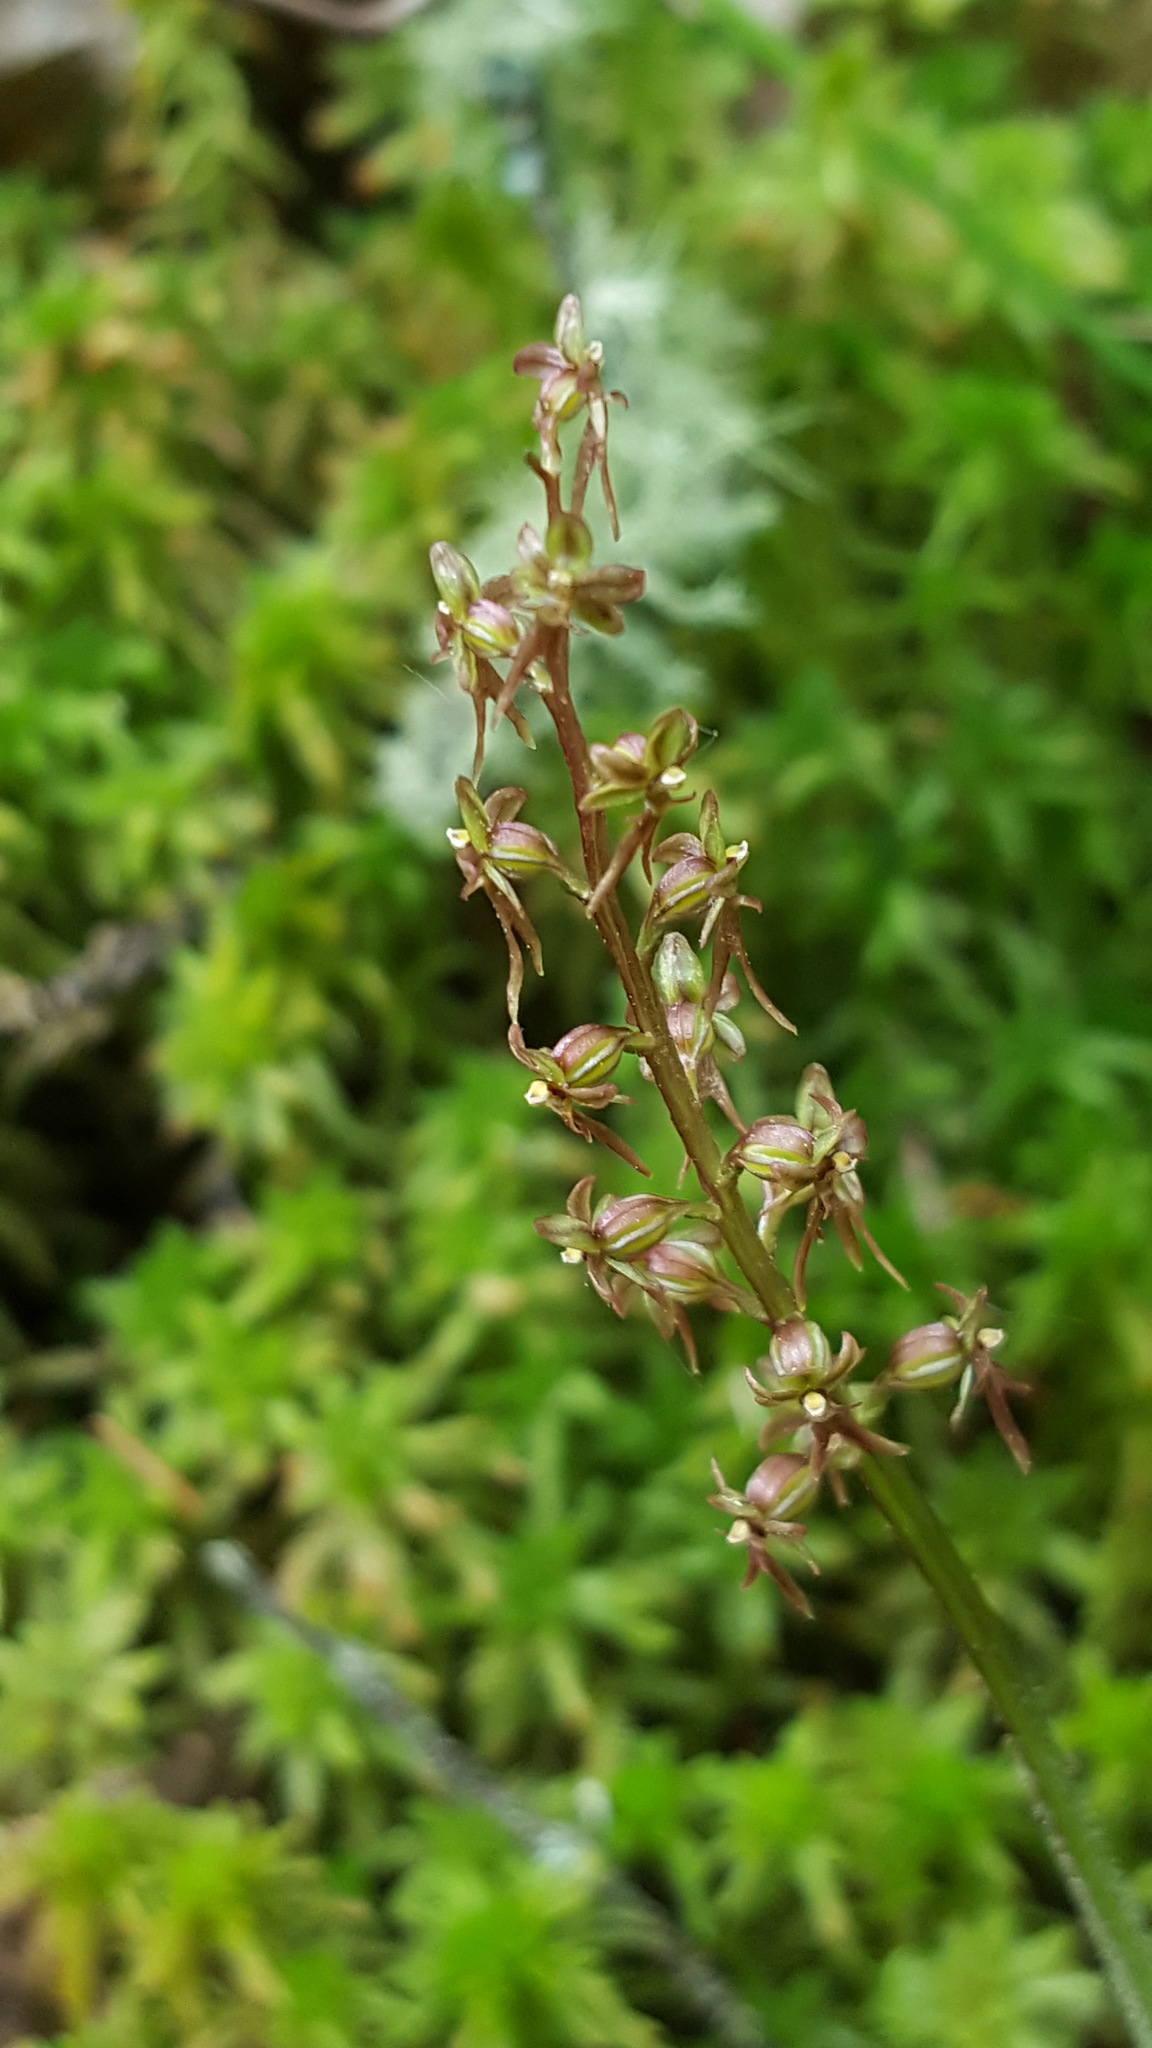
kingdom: Plantae
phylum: Tracheophyta
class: Liliopsida
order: Asparagales
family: Orchidaceae
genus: Neottia
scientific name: Neottia cordata
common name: Lesser twayblade
